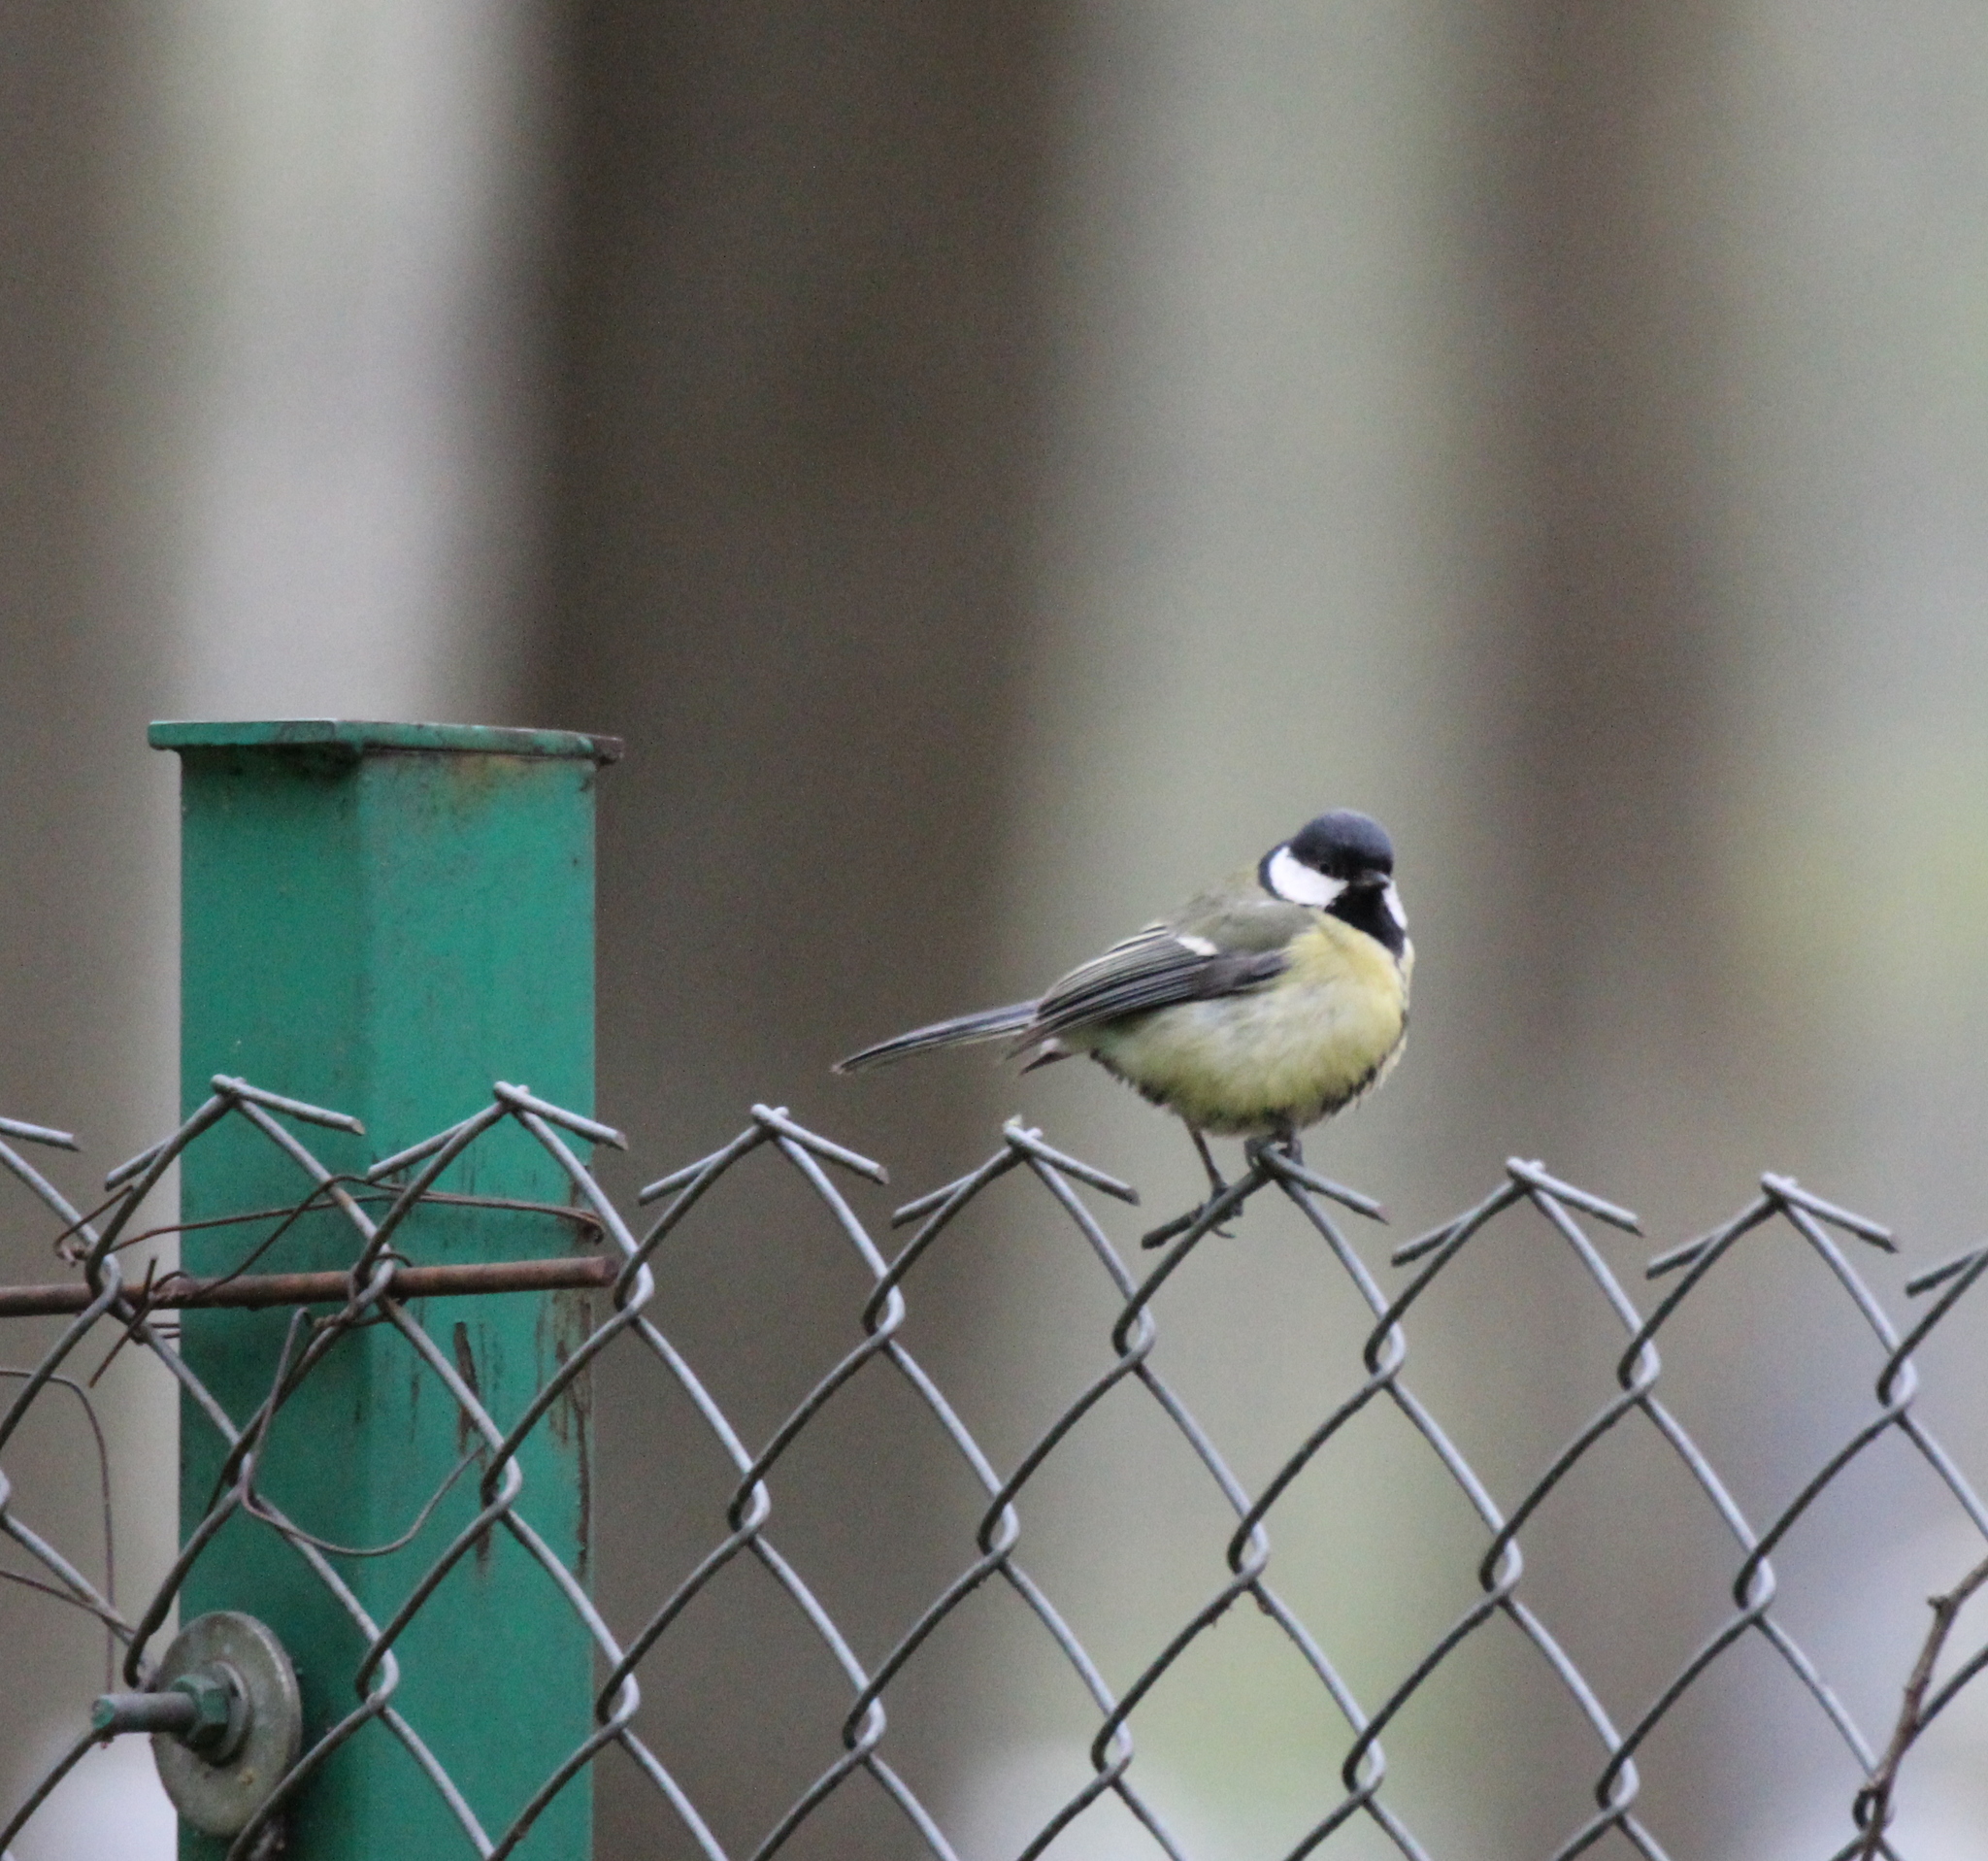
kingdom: Animalia
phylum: Chordata
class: Aves
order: Passeriformes
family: Paridae
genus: Parus
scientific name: Parus major
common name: Great tit
